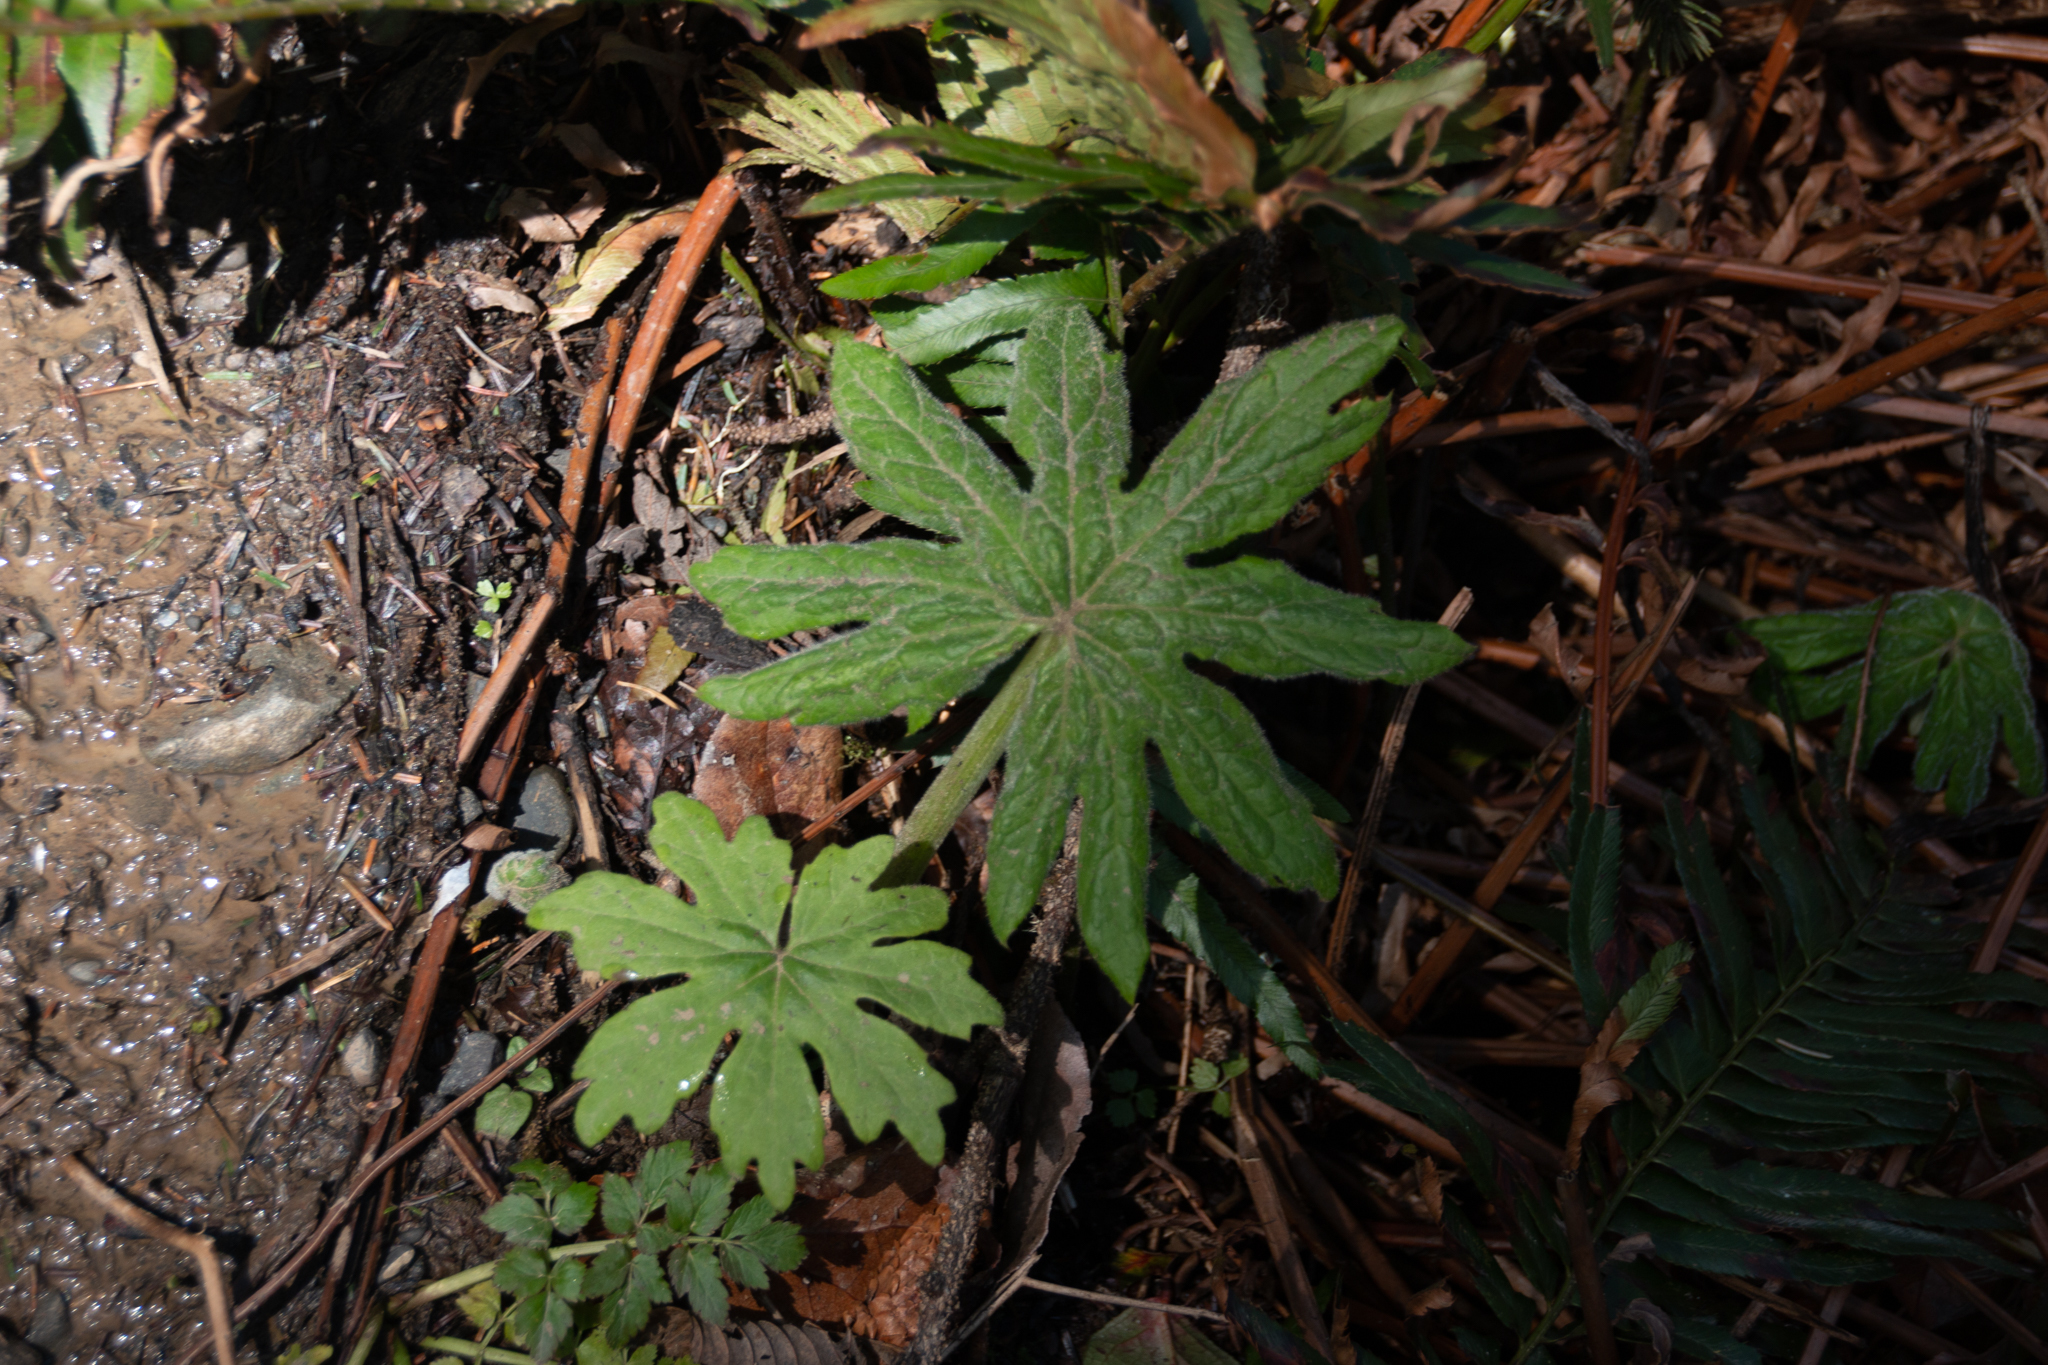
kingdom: Plantae
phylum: Tracheophyta
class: Magnoliopsida
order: Asterales
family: Asteraceae
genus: Petasites
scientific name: Petasites frigidus
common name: Arctic butterbur
